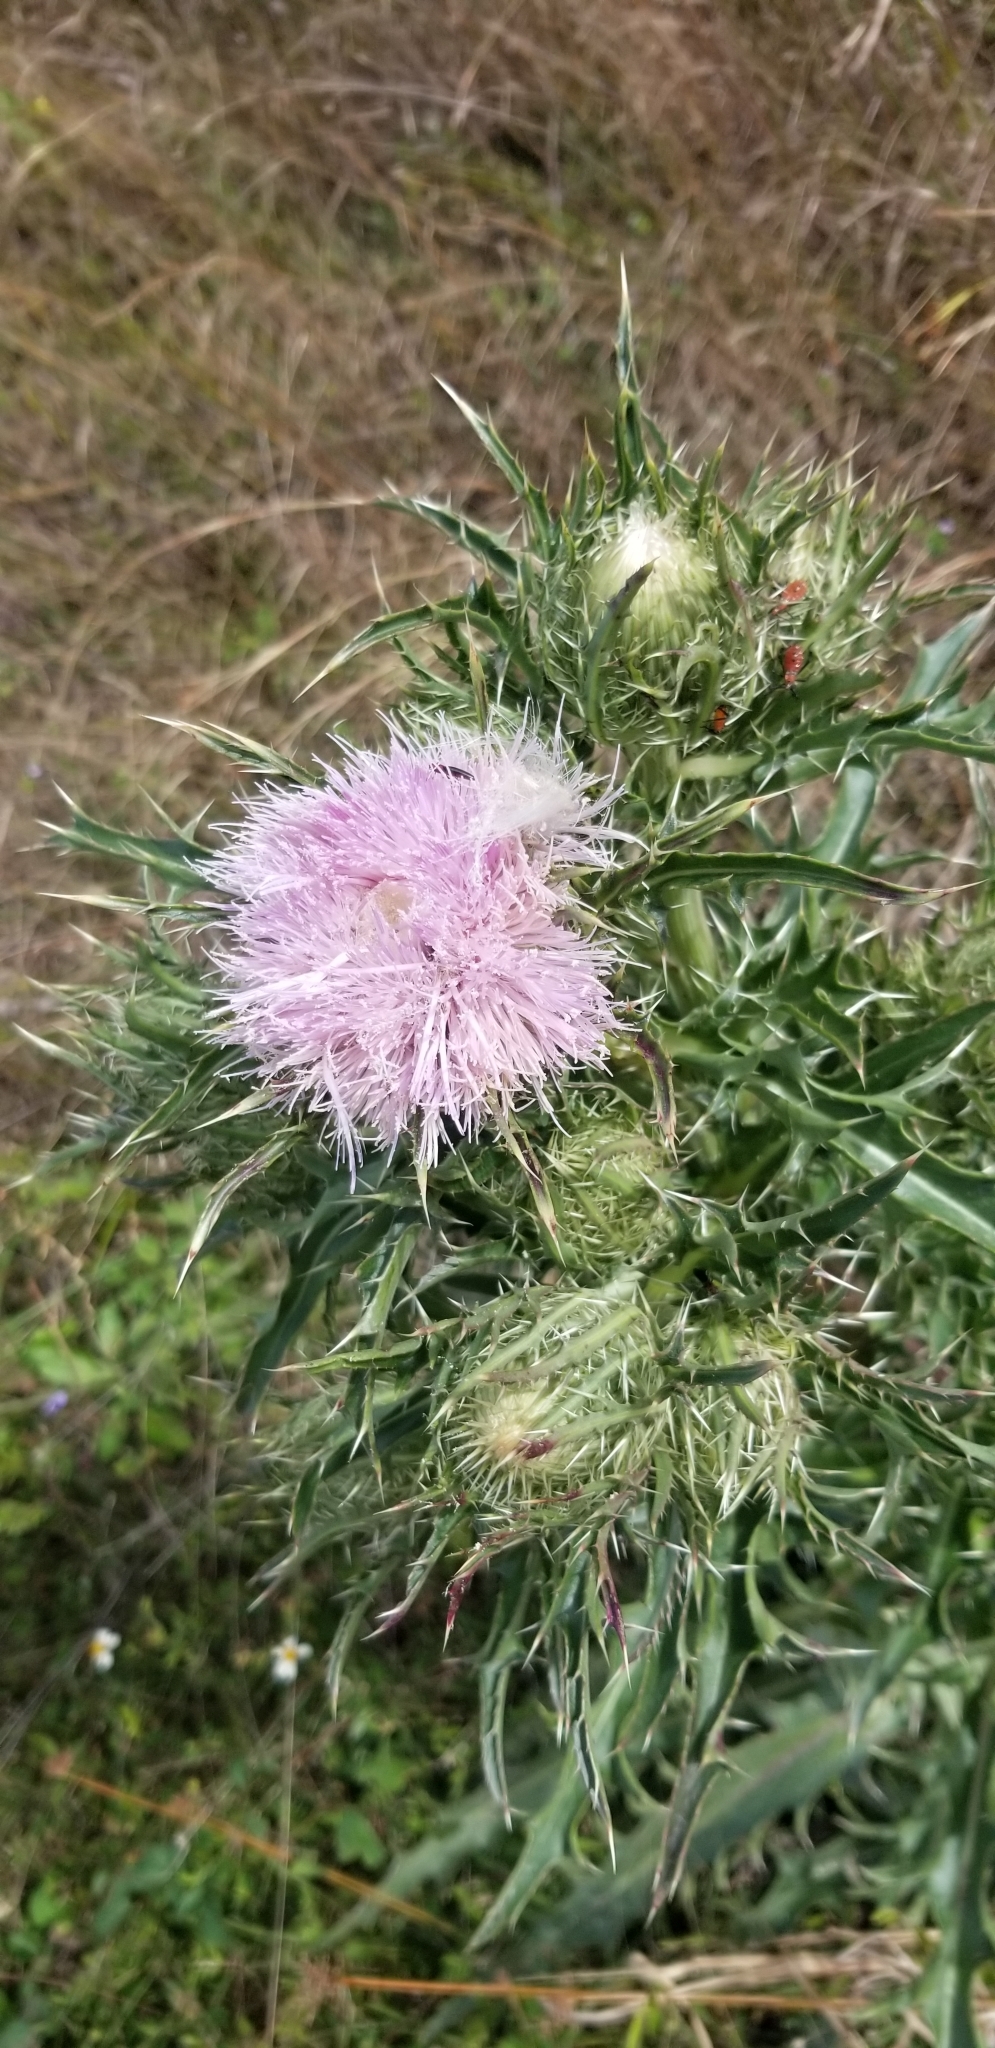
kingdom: Plantae
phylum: Tracheophyta
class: Magnoliopsida
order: Asterales
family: Asteraceae
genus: Cirsium
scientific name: Cirsium horridulum
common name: Bristly thistle
